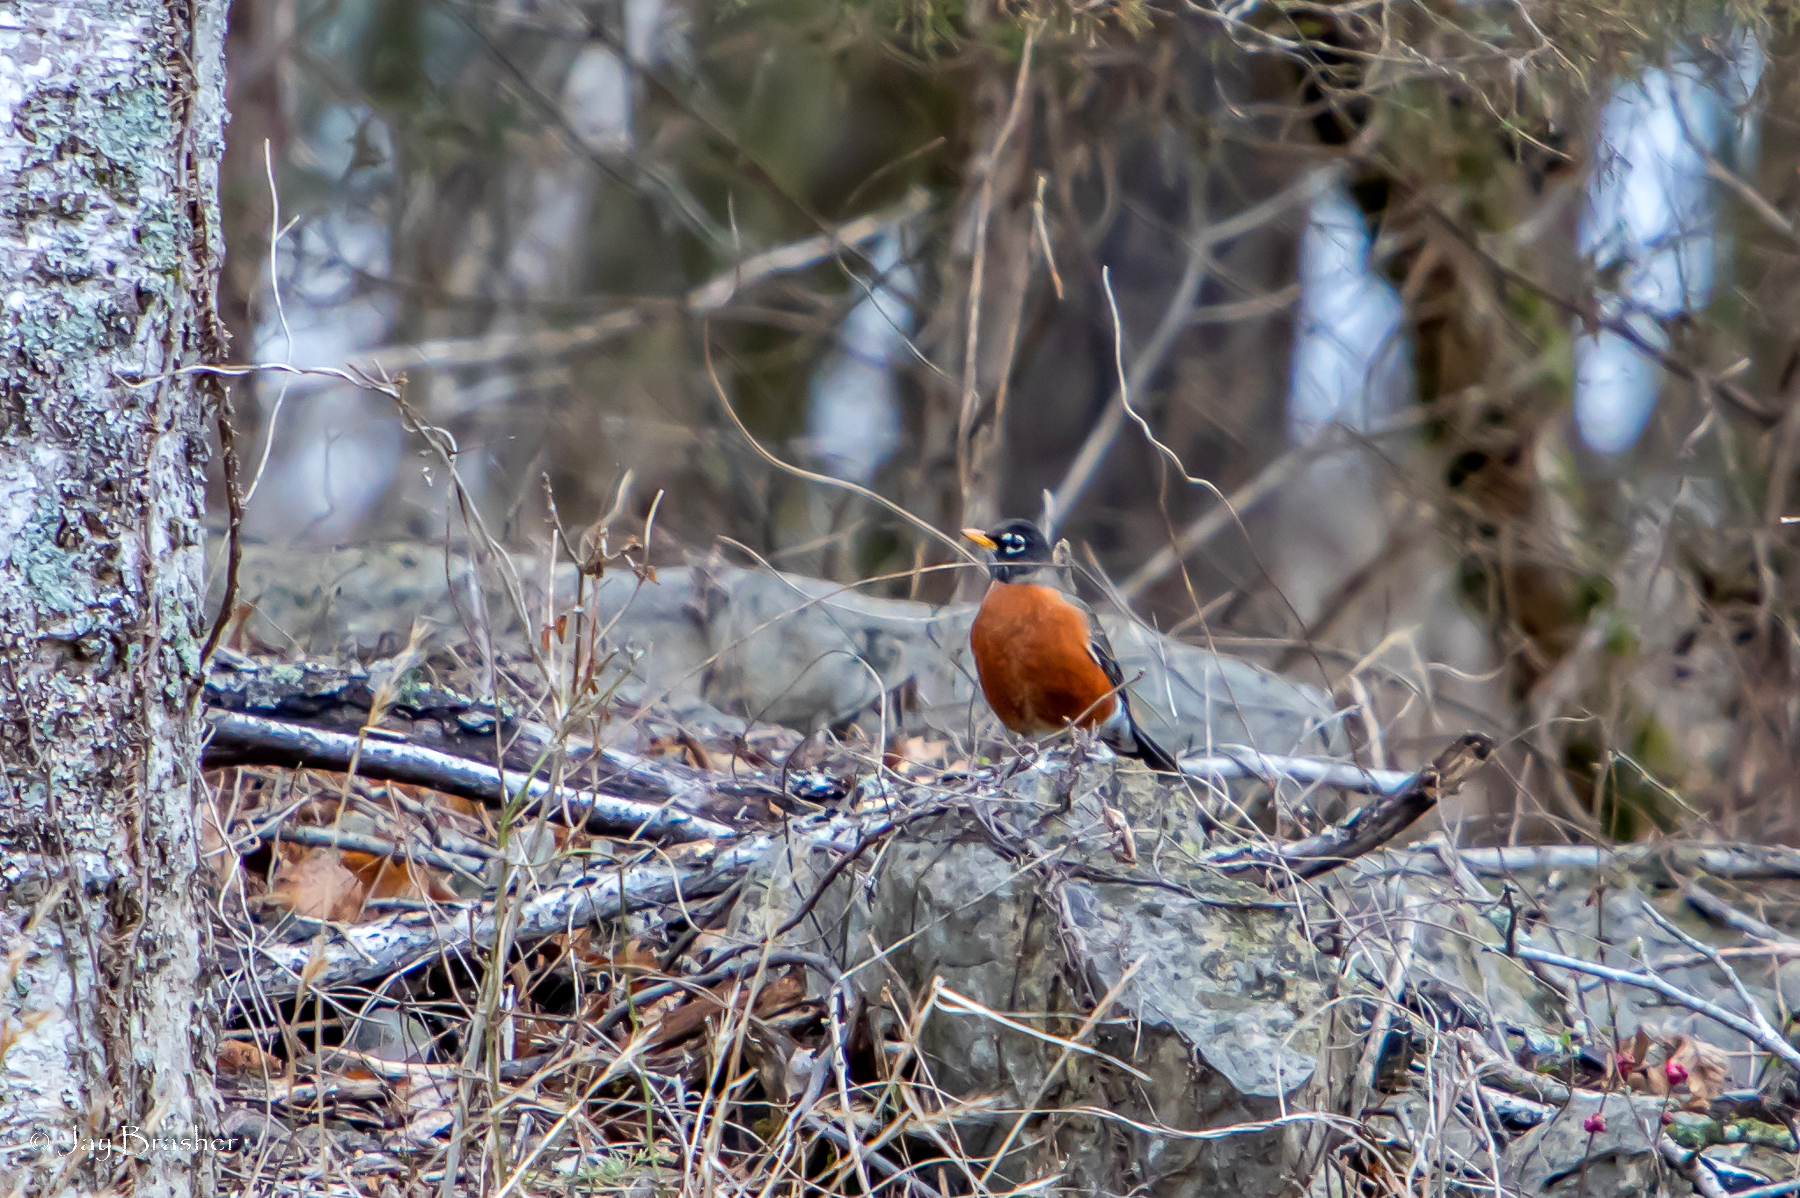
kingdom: Animalia
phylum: Chordata
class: Aves
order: Passeriformes
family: Turdidae
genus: Turdus
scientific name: Turdus migratorius
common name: American robin
